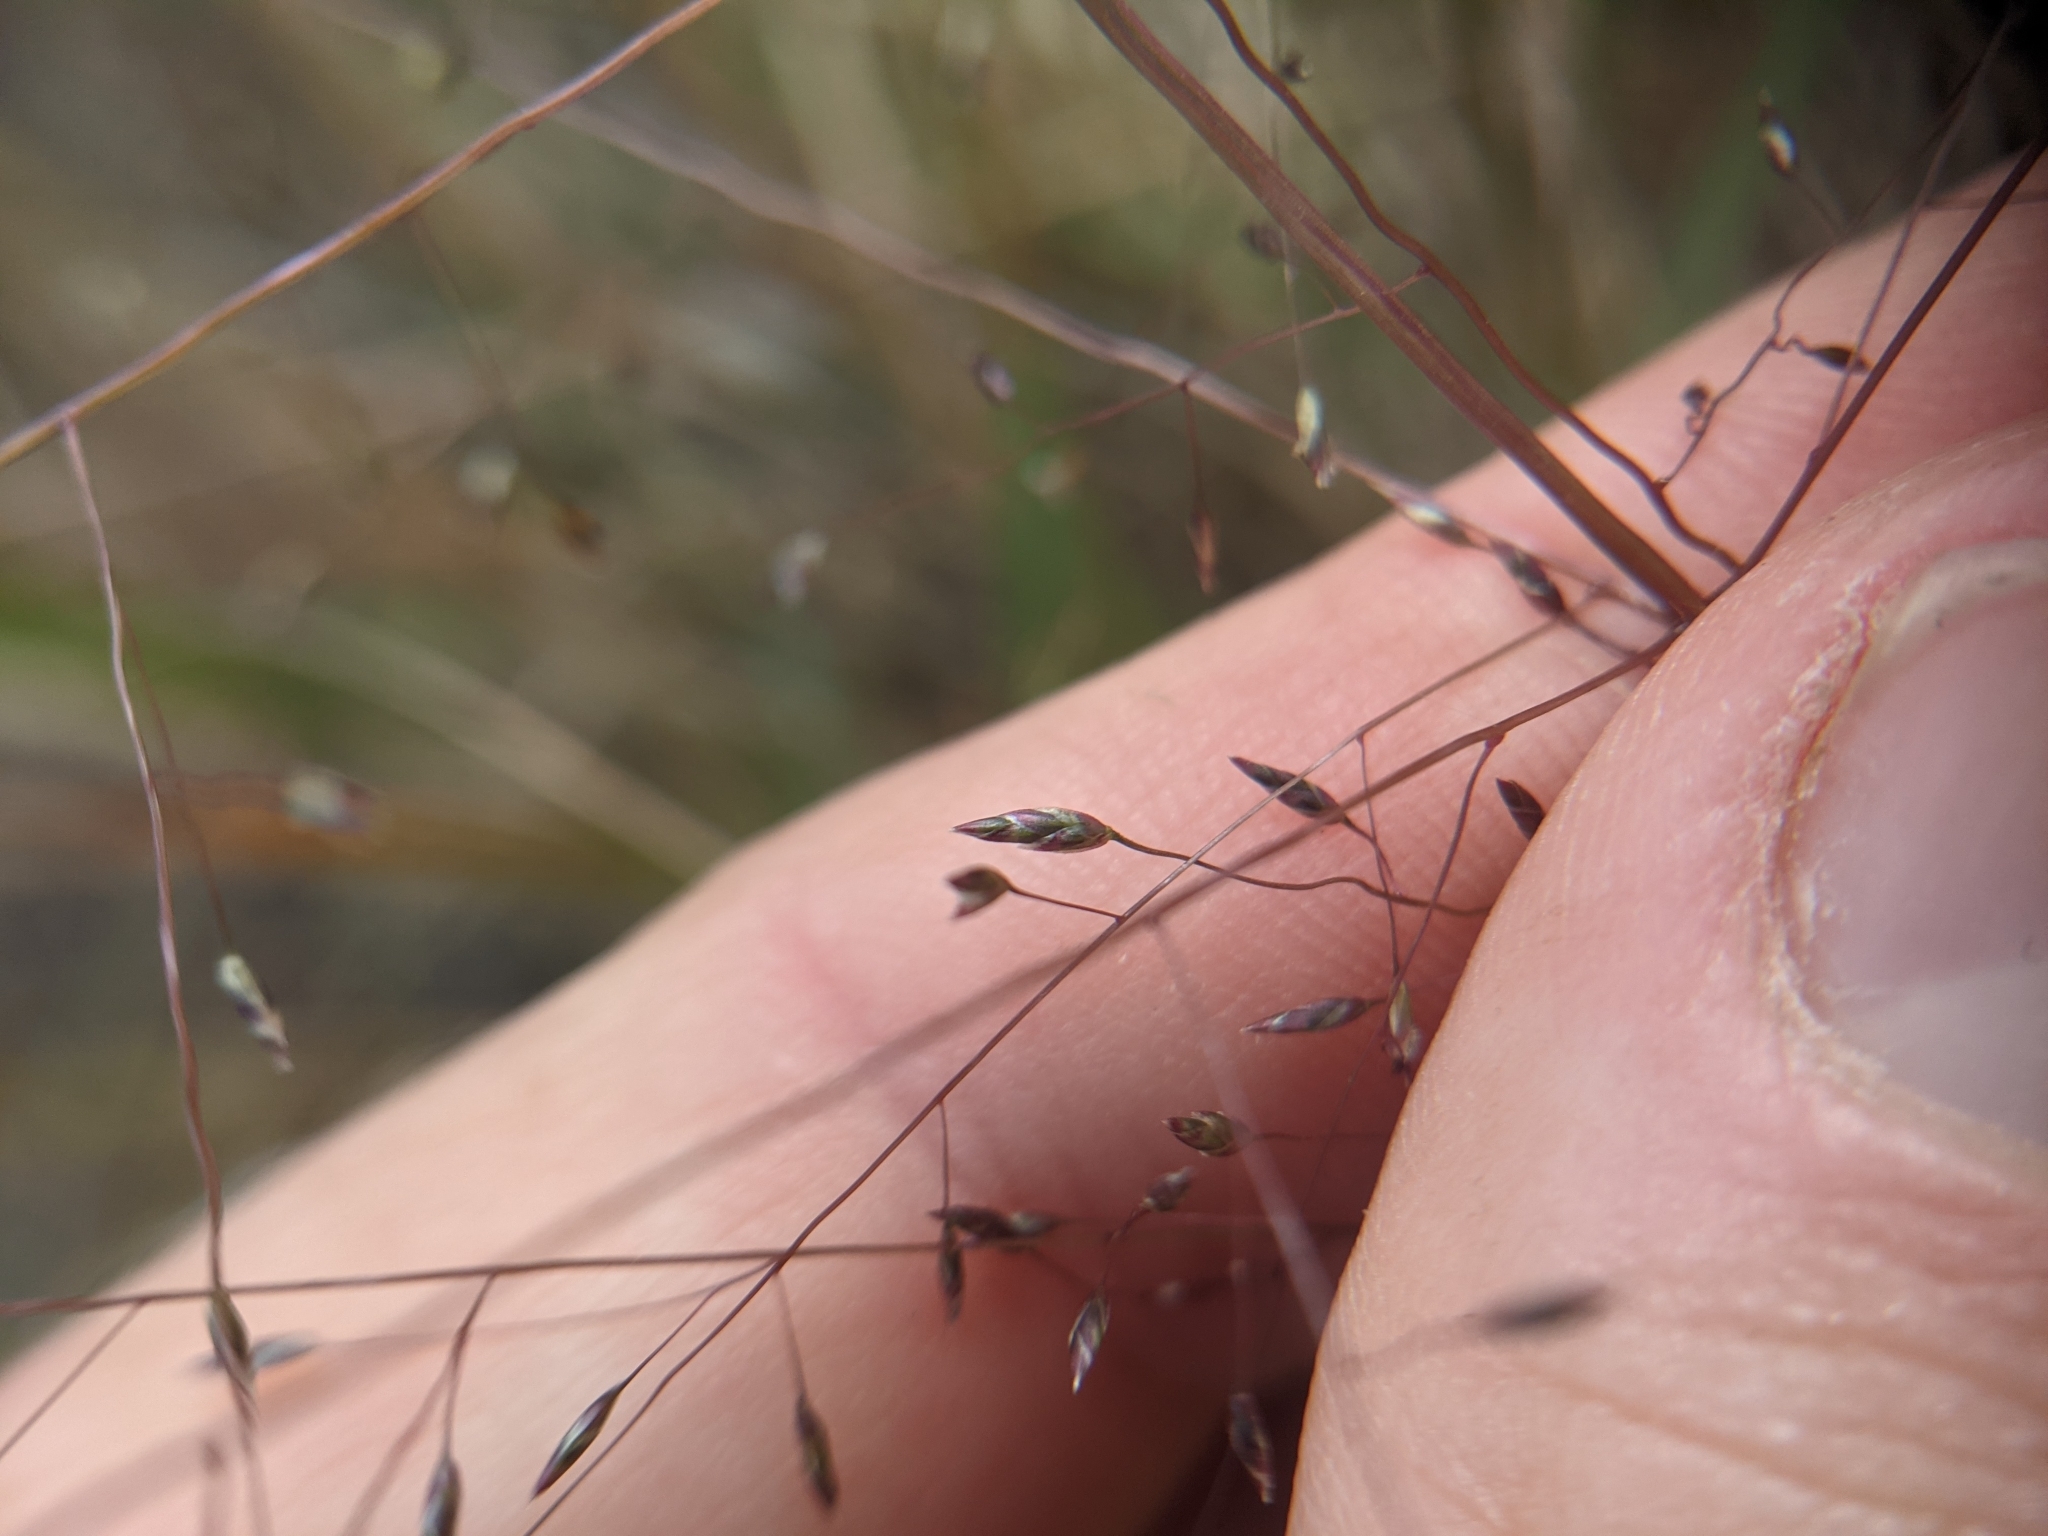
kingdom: Plantae
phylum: Tracheophyta
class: Liliopsida
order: Poales
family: Poaceae
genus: Eragrostis
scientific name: Eragrostis intermedia
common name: Plains love grass
